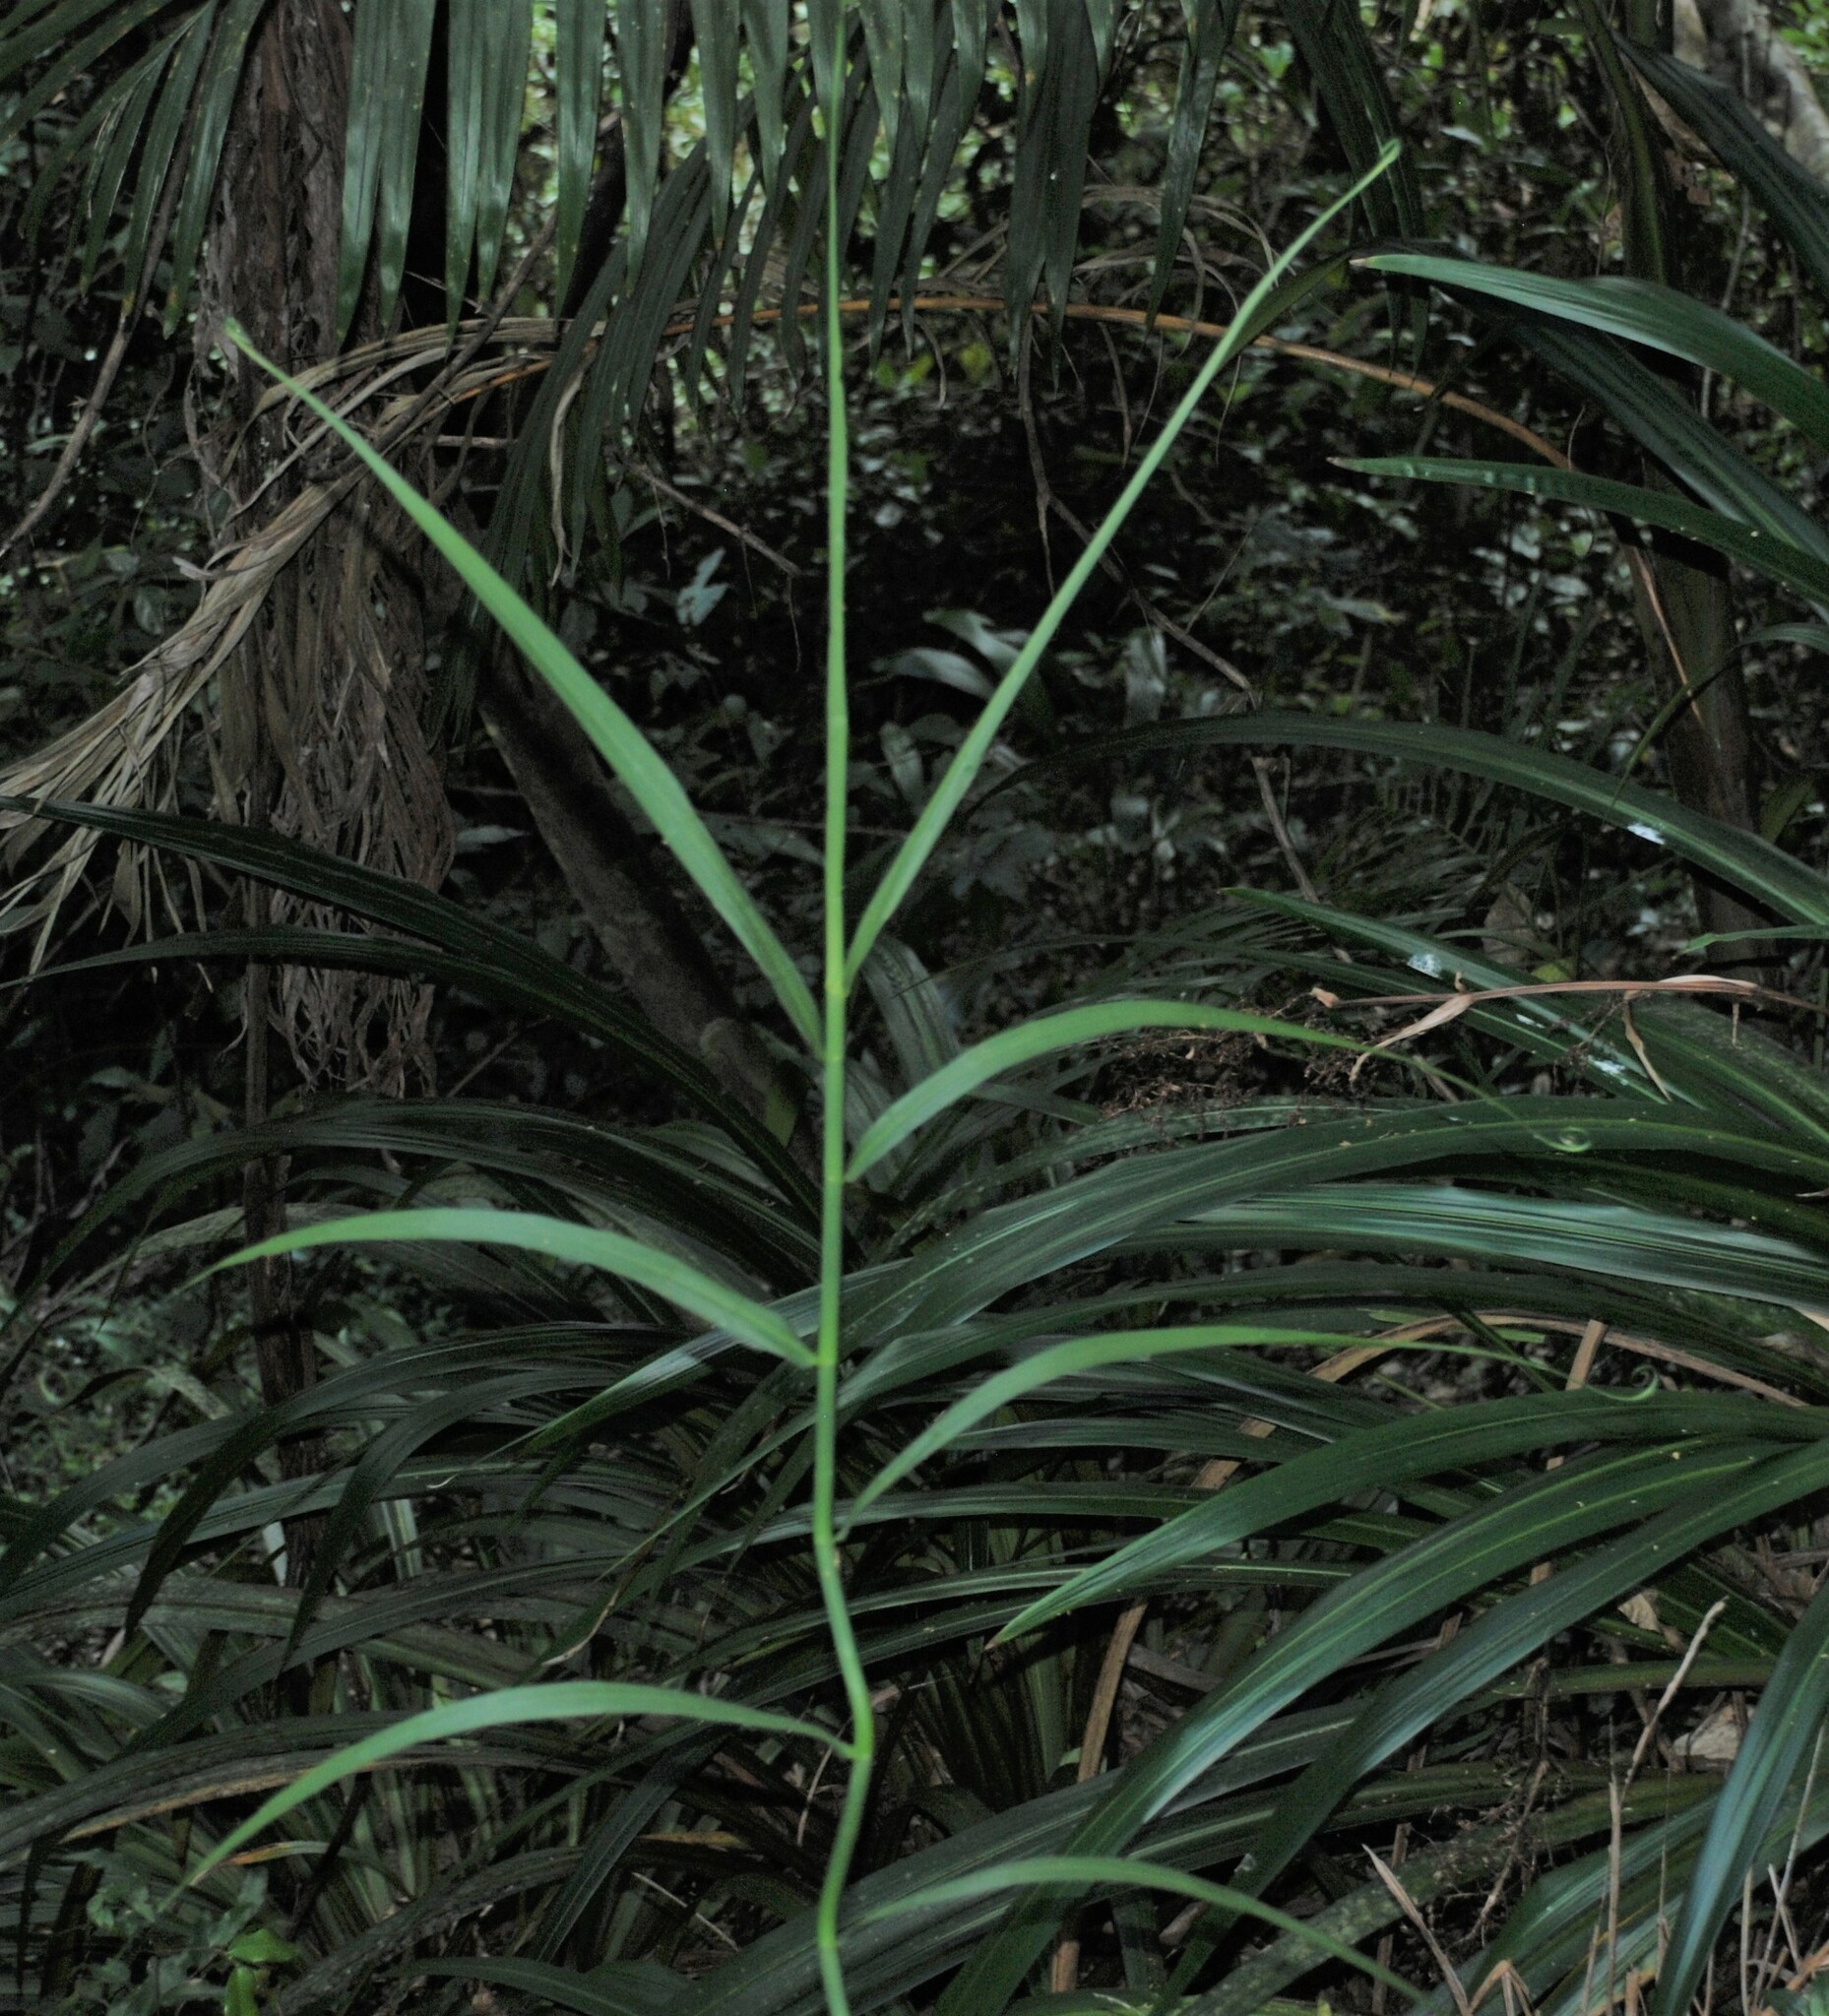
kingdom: Plantae
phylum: Tracheophyta
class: Liliopsida
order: Poales
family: Flagellariaceae
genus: Flagellaria
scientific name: Flagellaria indica
